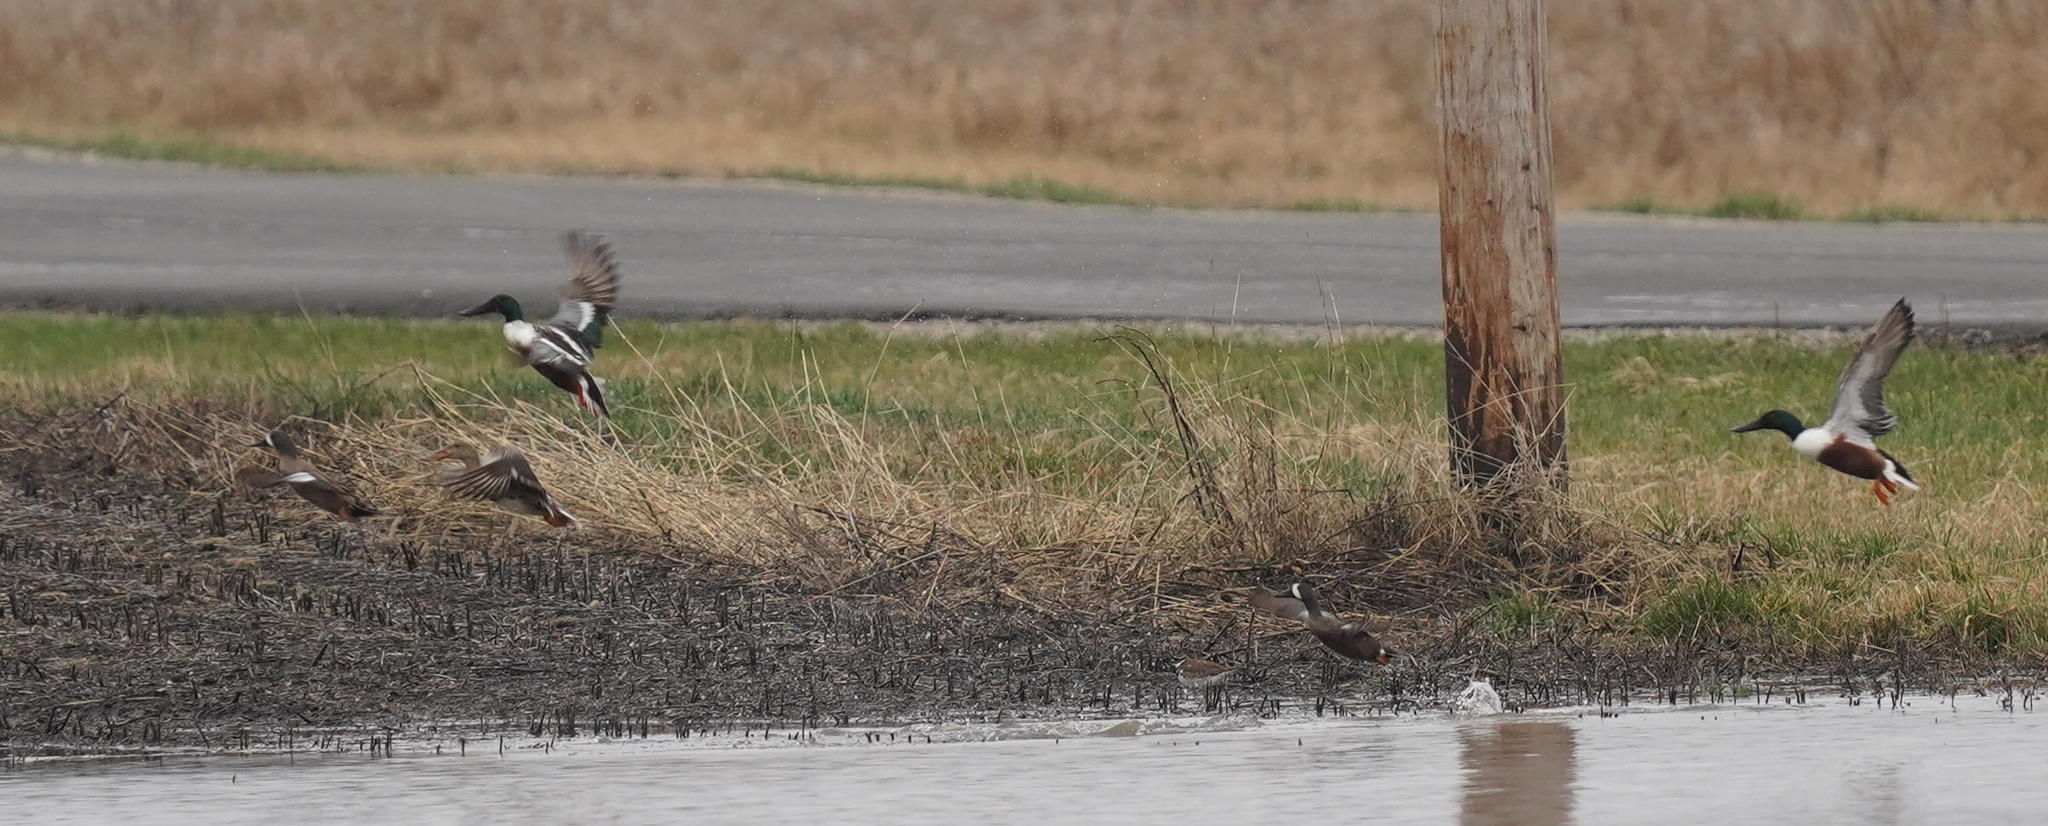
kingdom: Animalia
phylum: Chordata
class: Aves
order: Anseriformes
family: Anatidae
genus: Spatula
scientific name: Spatula discors
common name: Blue-winged teal
